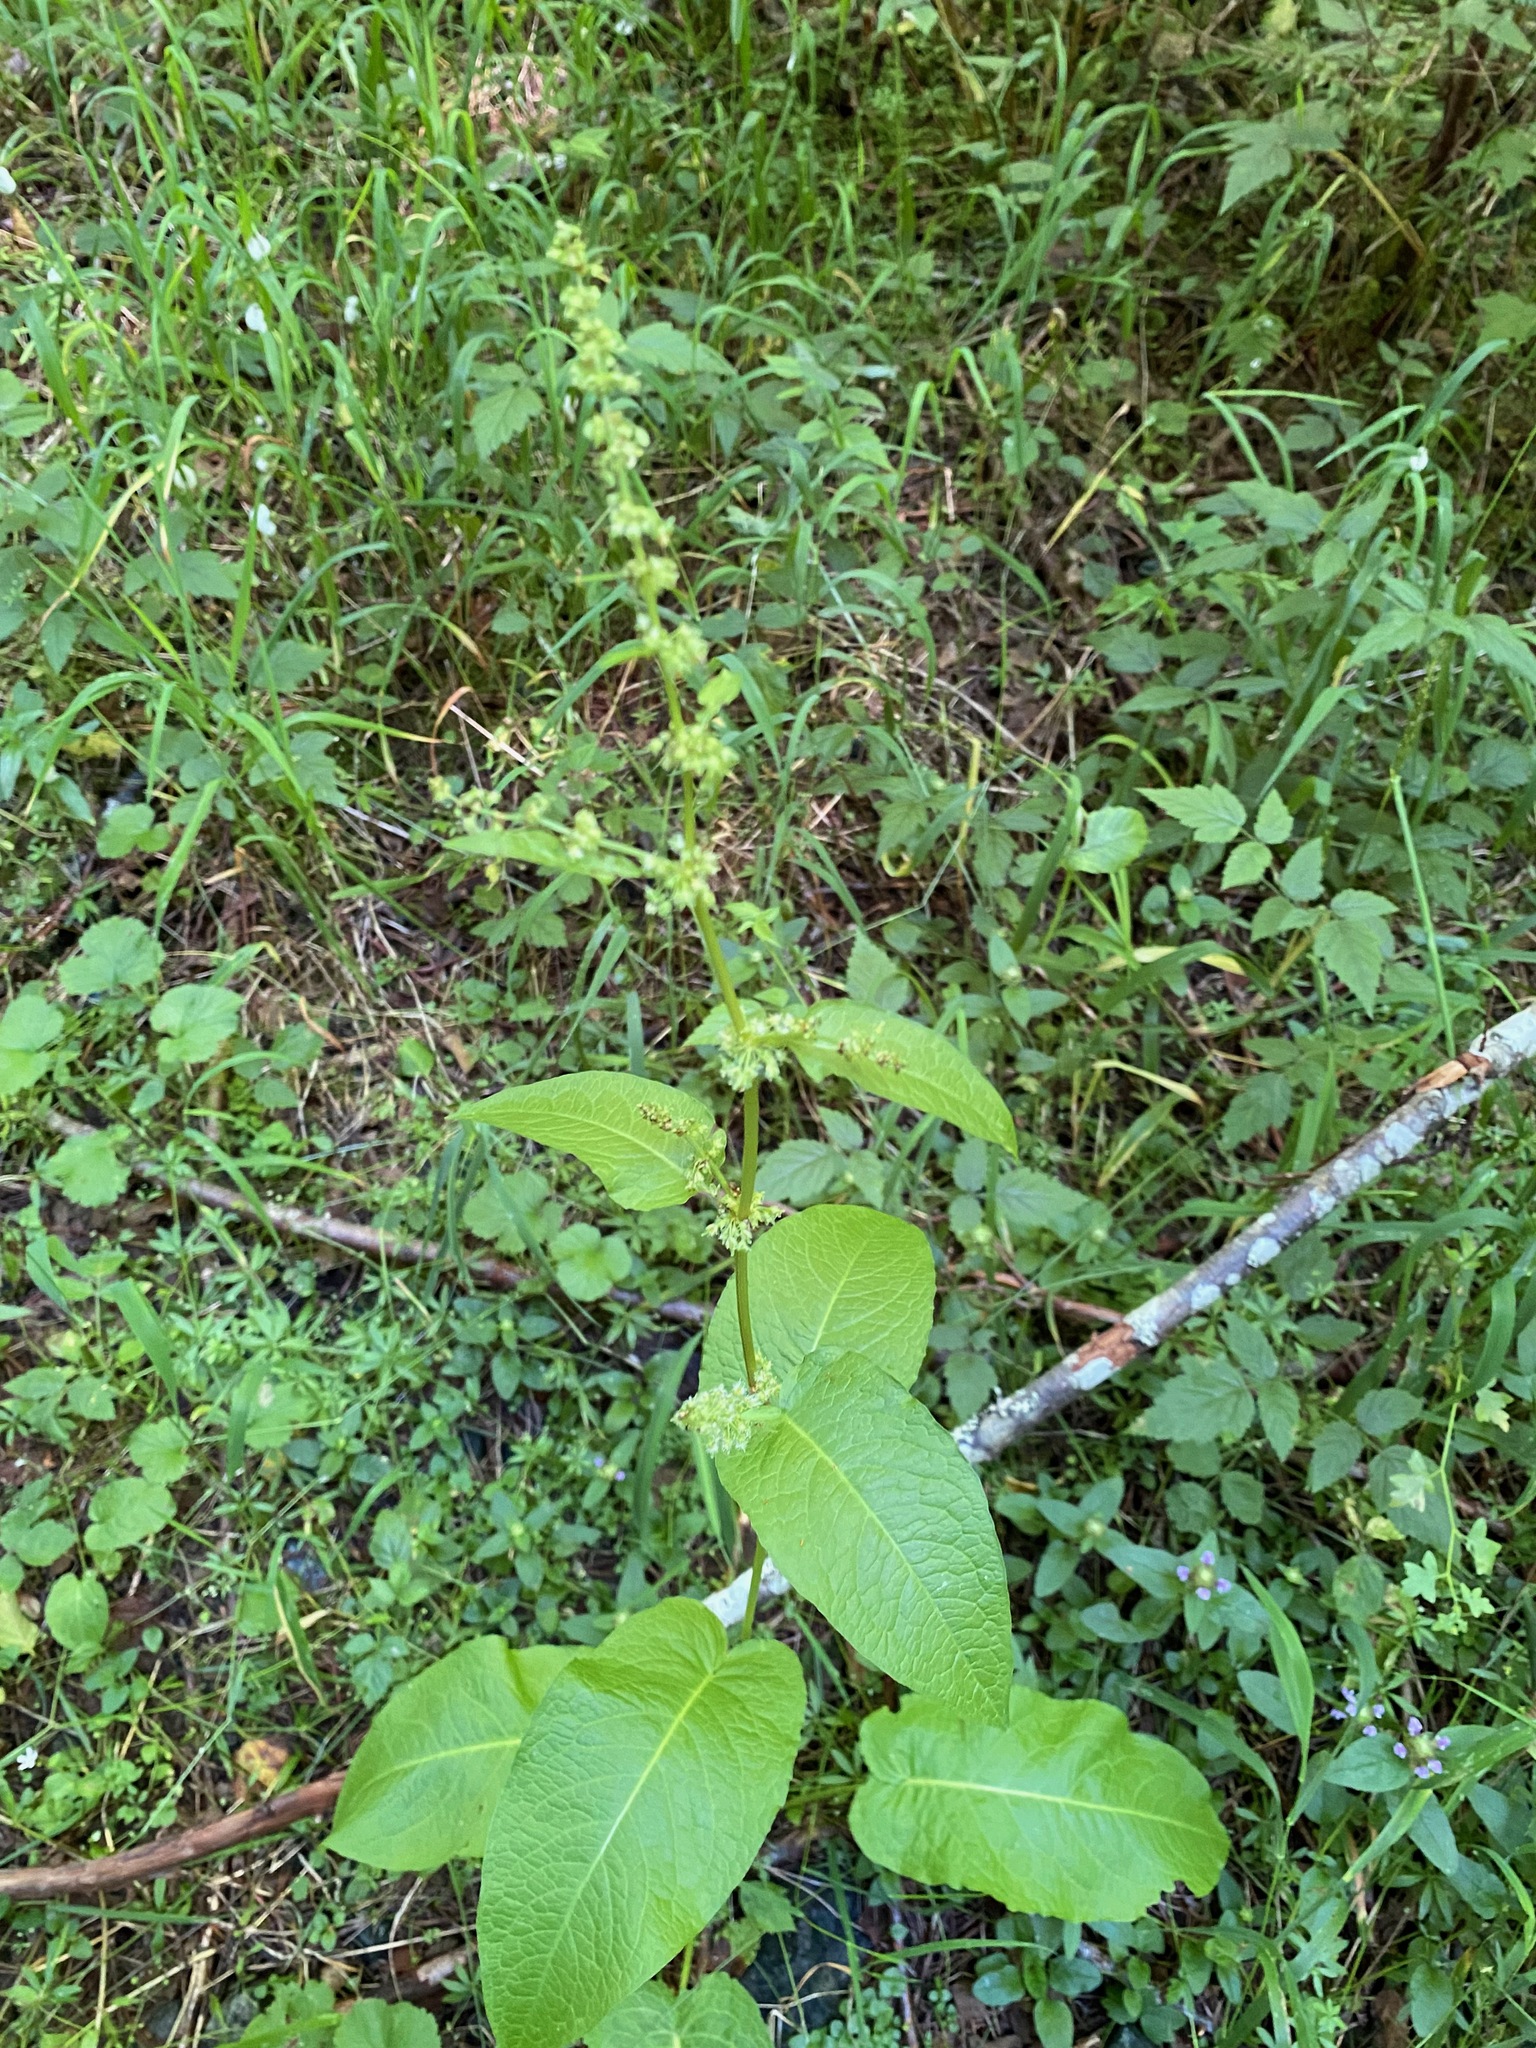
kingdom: Plantae
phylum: Tracheophyta
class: Magnoliopsida
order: Caryophyllales
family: Polygonaceae
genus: Rumex
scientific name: Rumex obtusifolius
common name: Bitter dock
